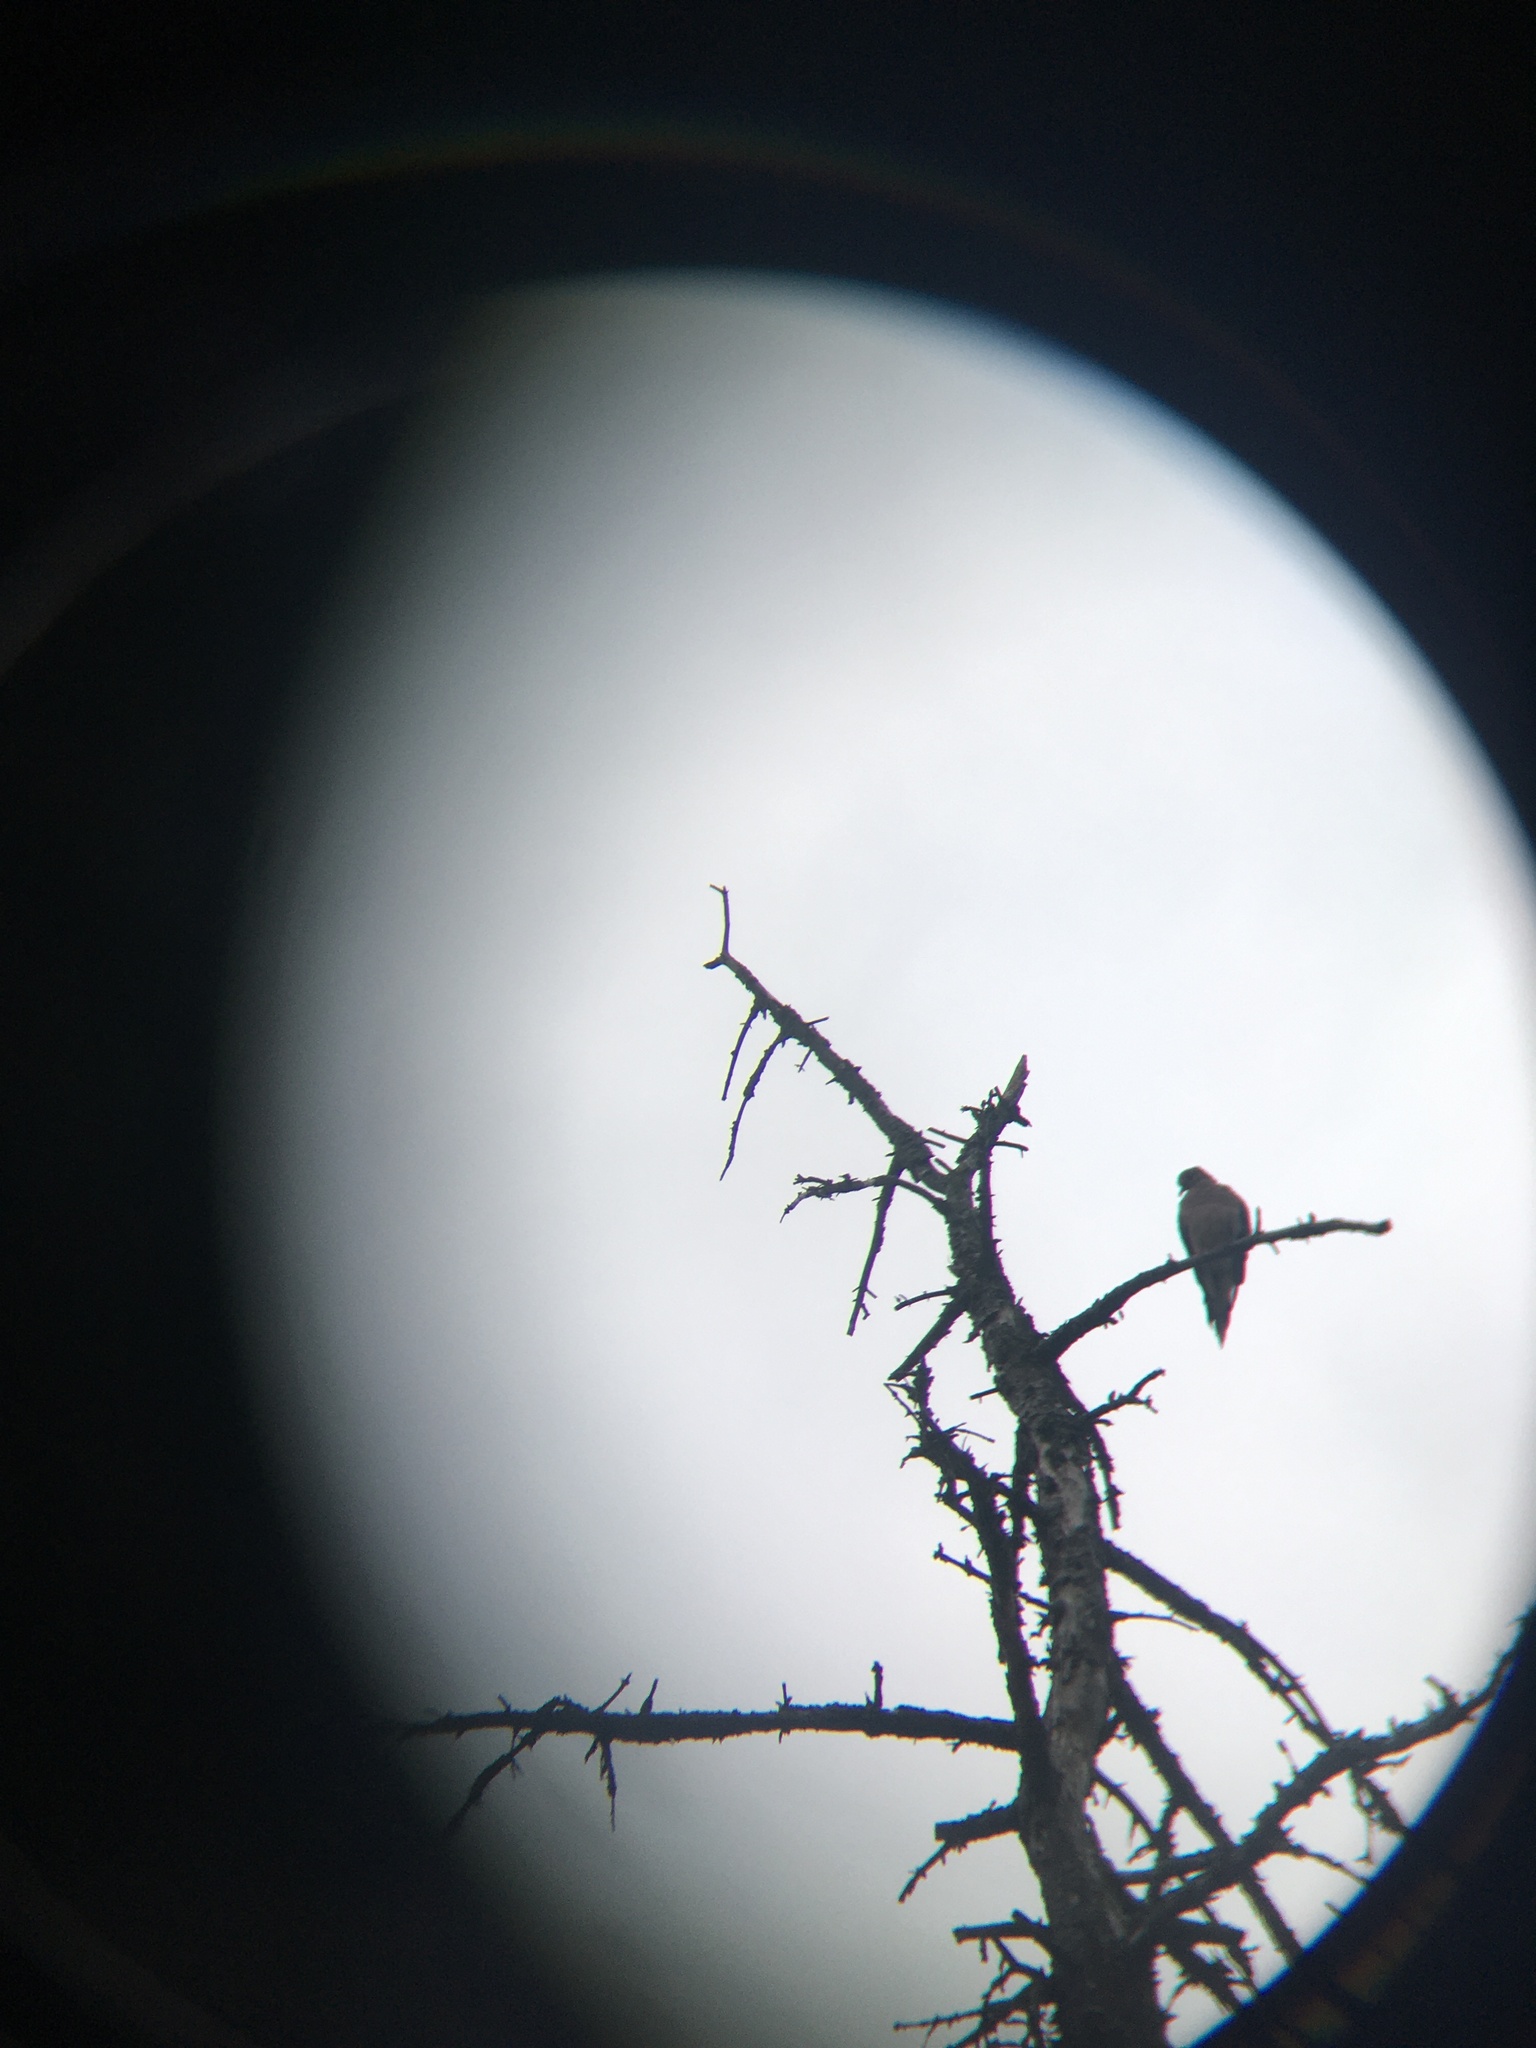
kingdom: Animalia
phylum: Chordata
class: Aves
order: Columbiformes
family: Columbidae
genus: Zenaida
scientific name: Zenaida macroura
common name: Mourning dove
